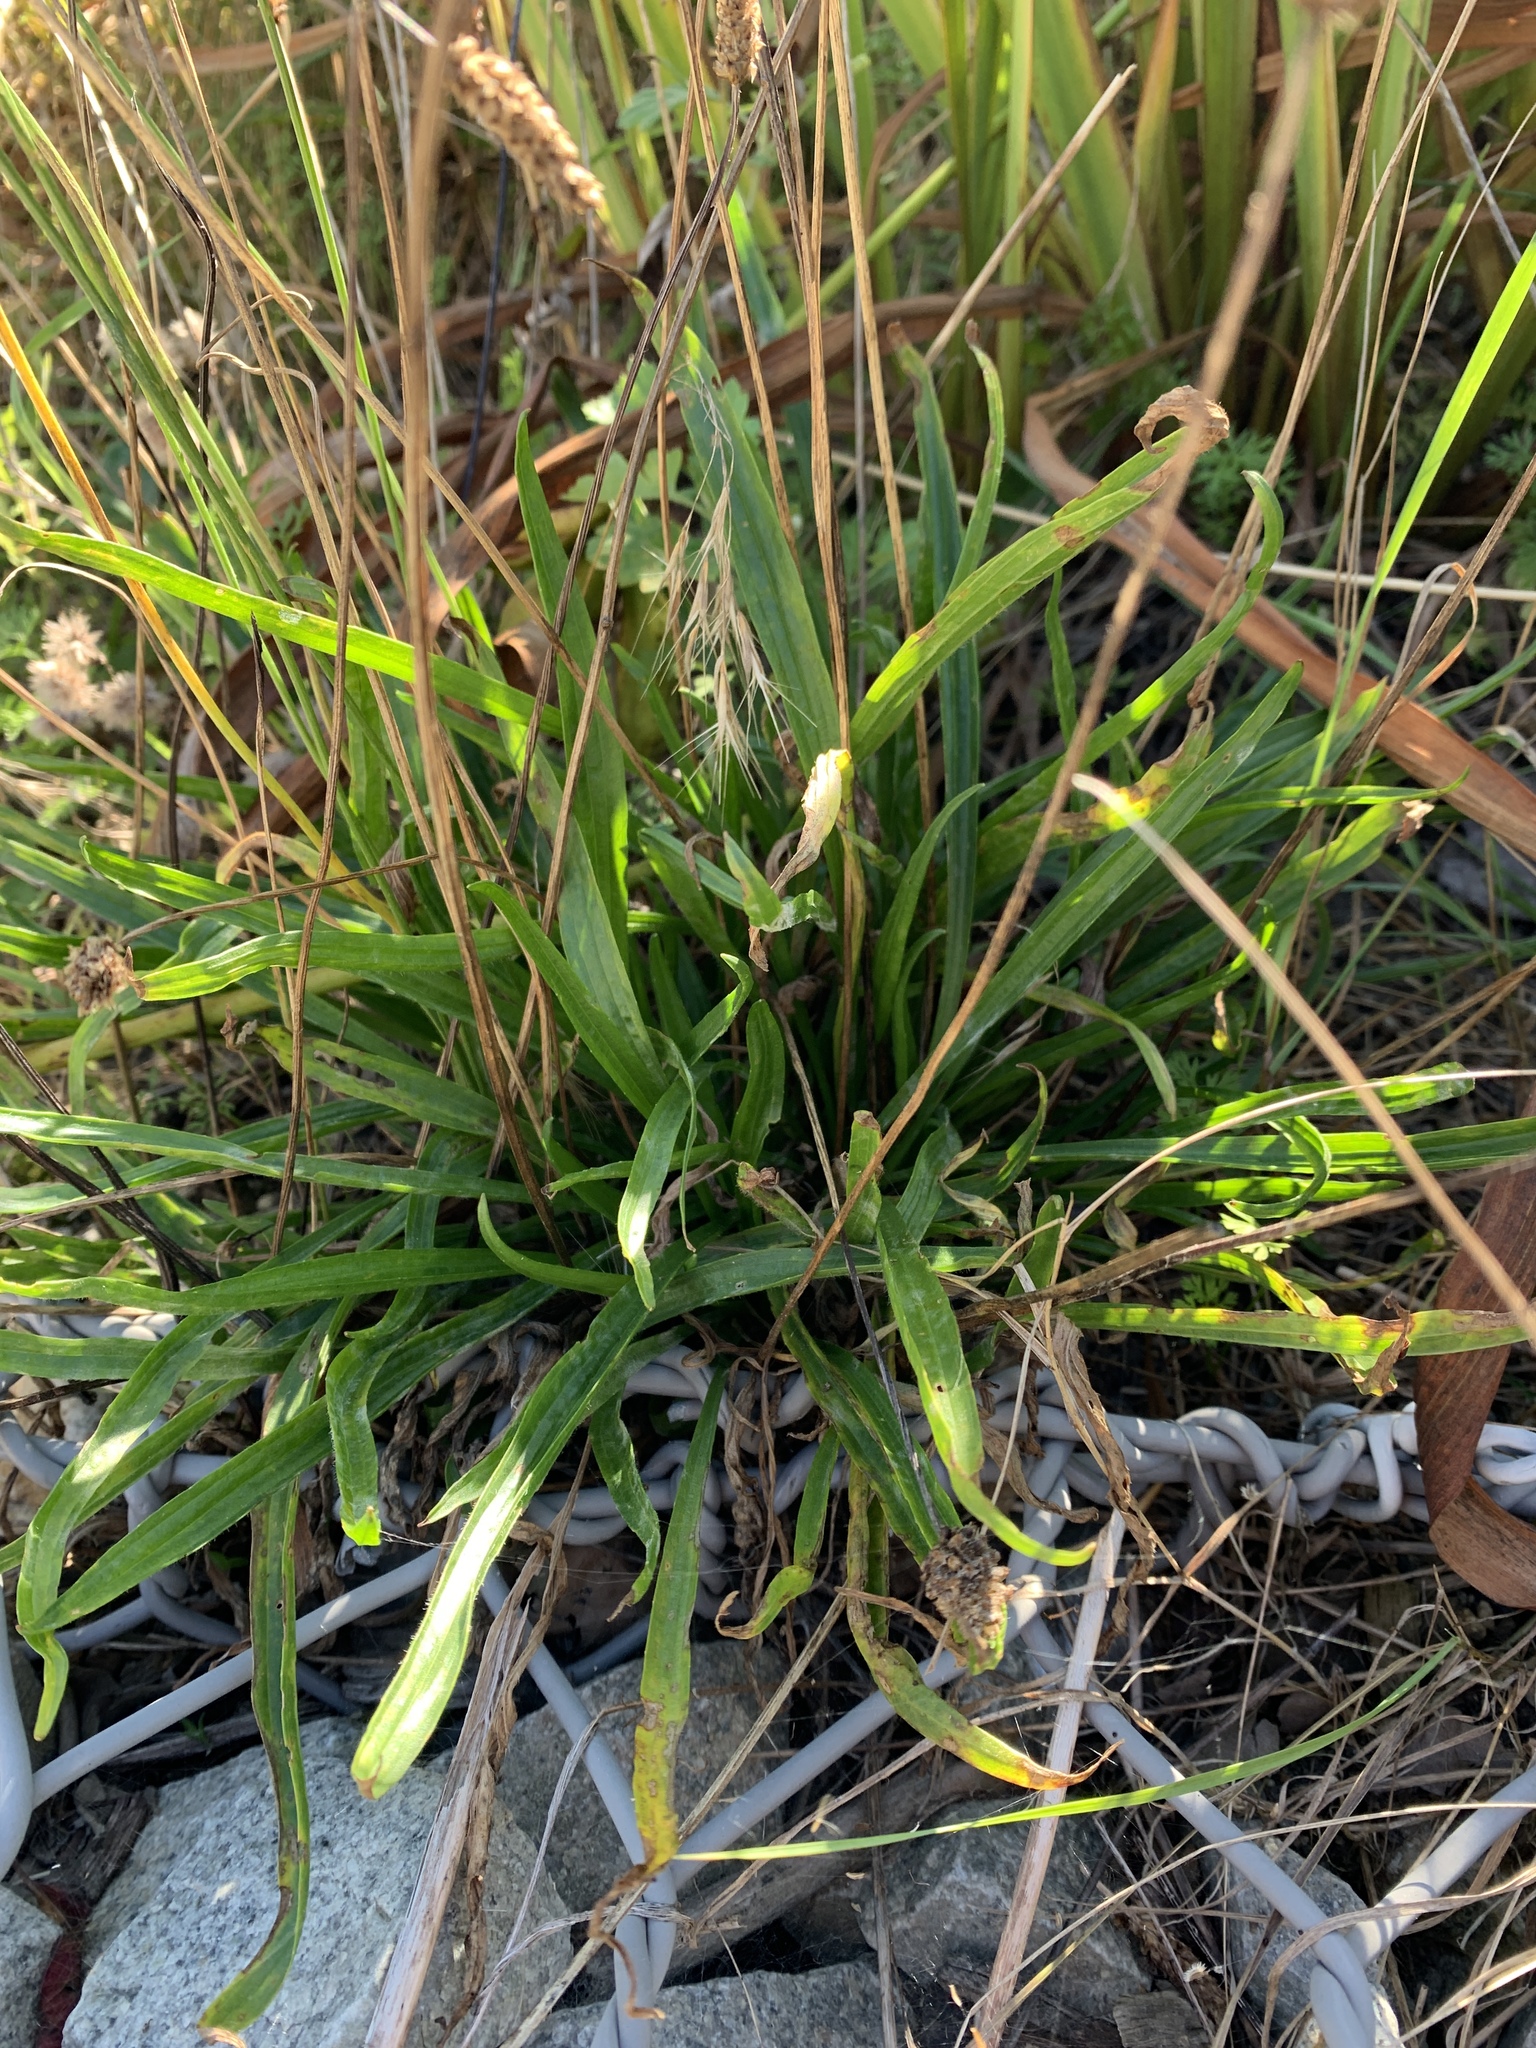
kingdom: Plantae
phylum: Tracheophyta
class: Magnoliopsida
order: Lamiales
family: Plantaginaceae
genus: Plantago
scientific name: Plantago lanceolata
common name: Ribwort plantain
